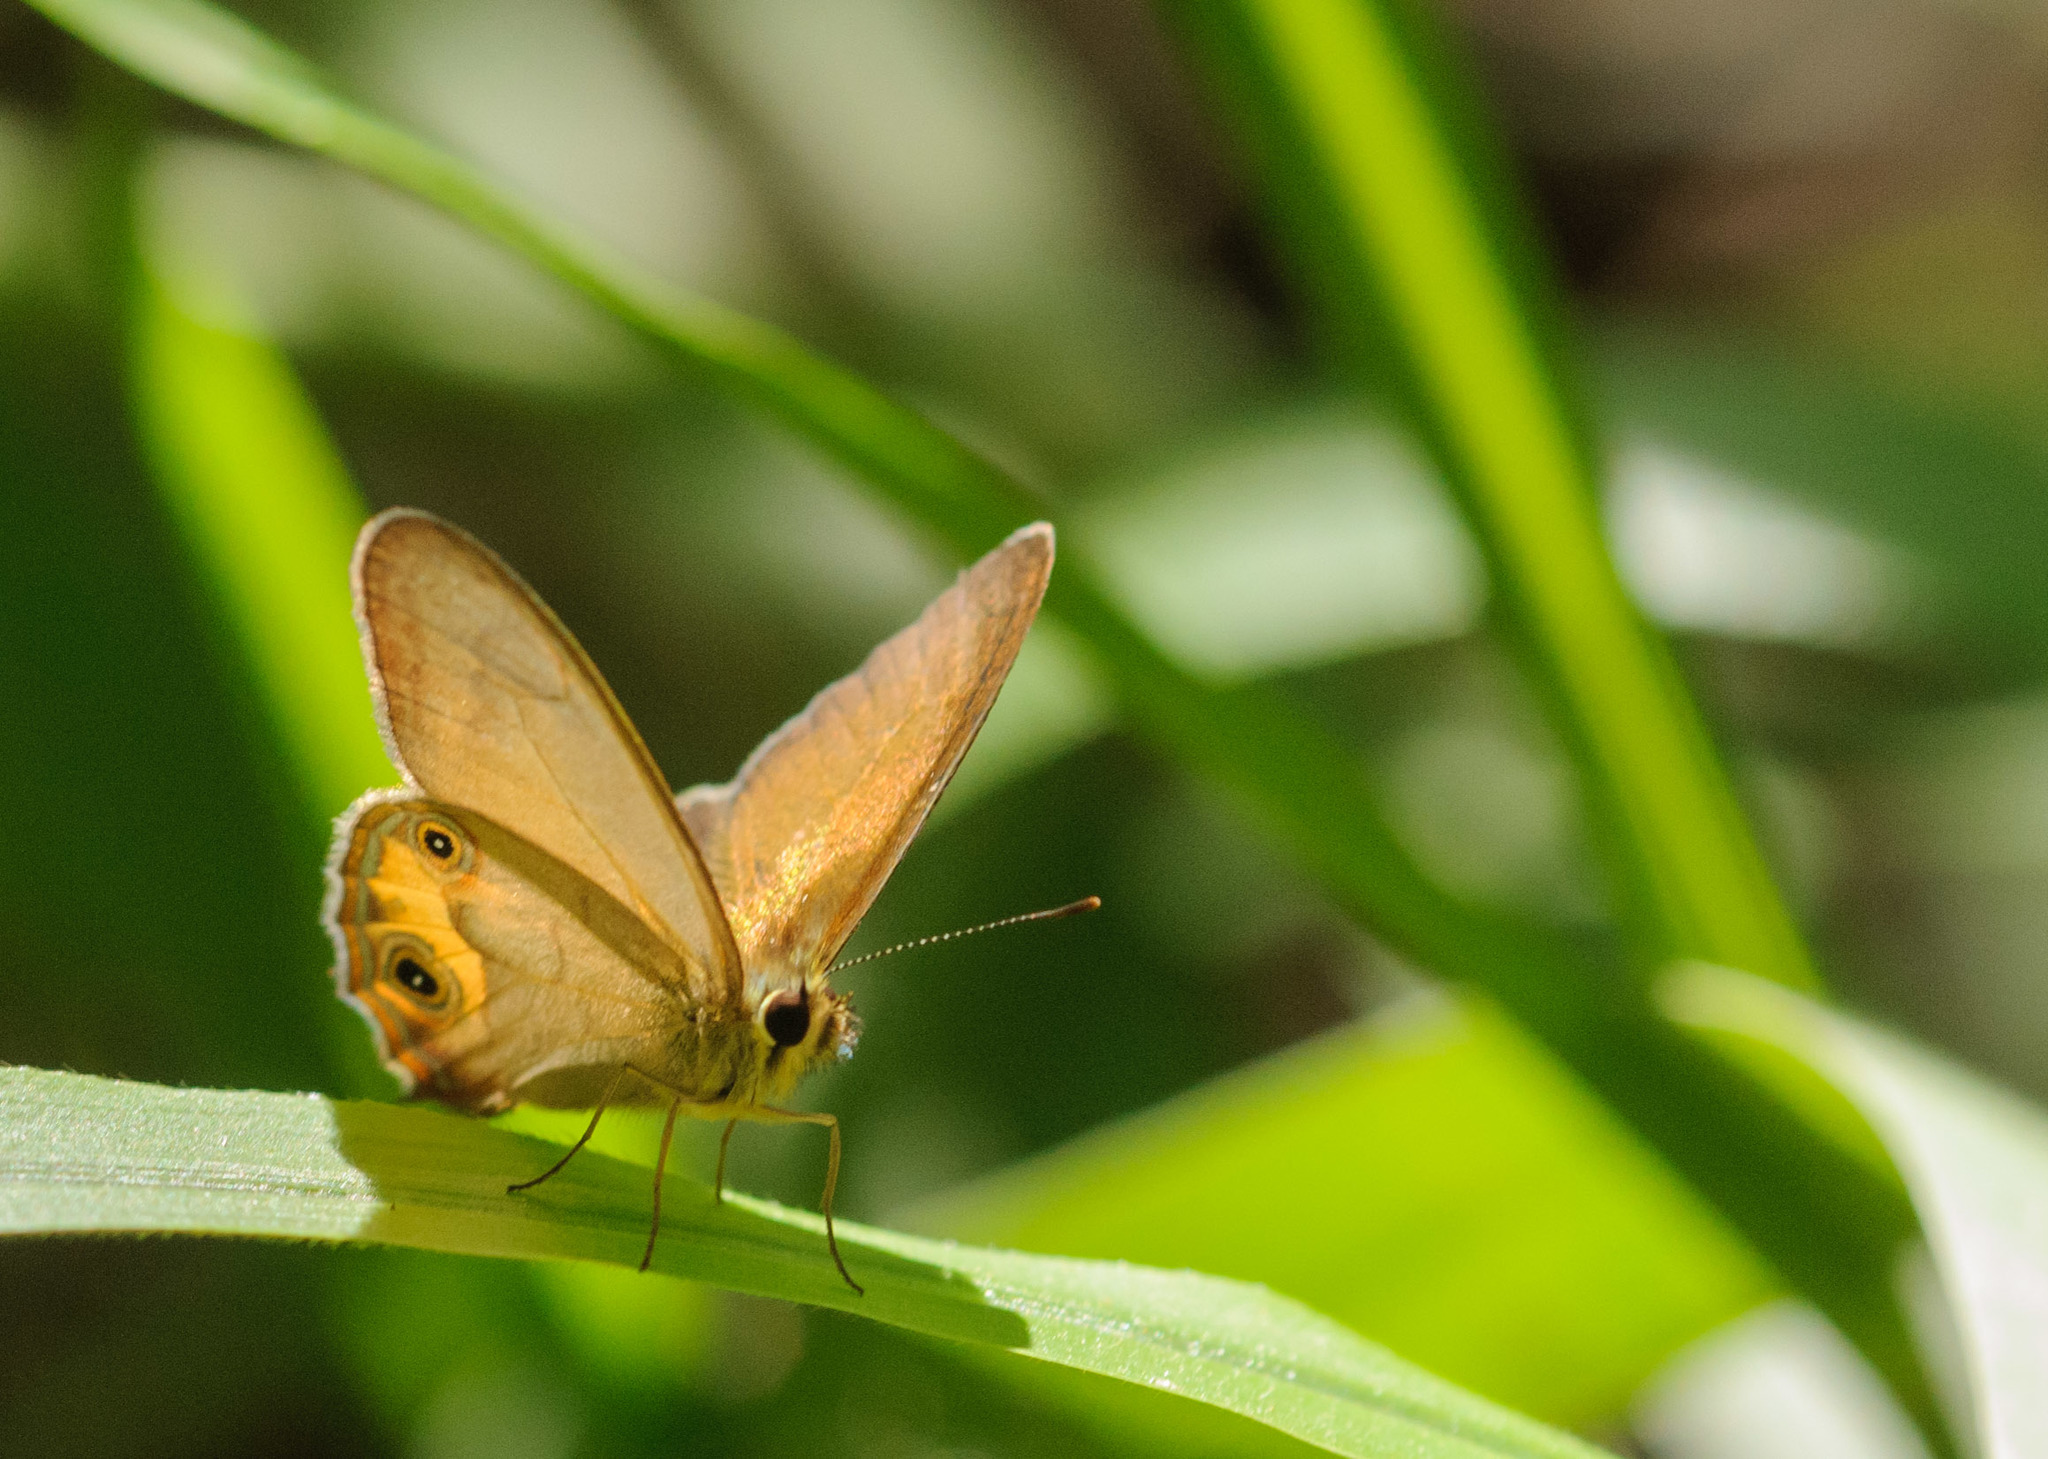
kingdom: Animalia
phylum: Arthropoda
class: Insecta
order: Lepidoptera
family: Nymphalidae
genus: Hypocysta
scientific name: Hypocysta metirius
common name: Brown ringlet
